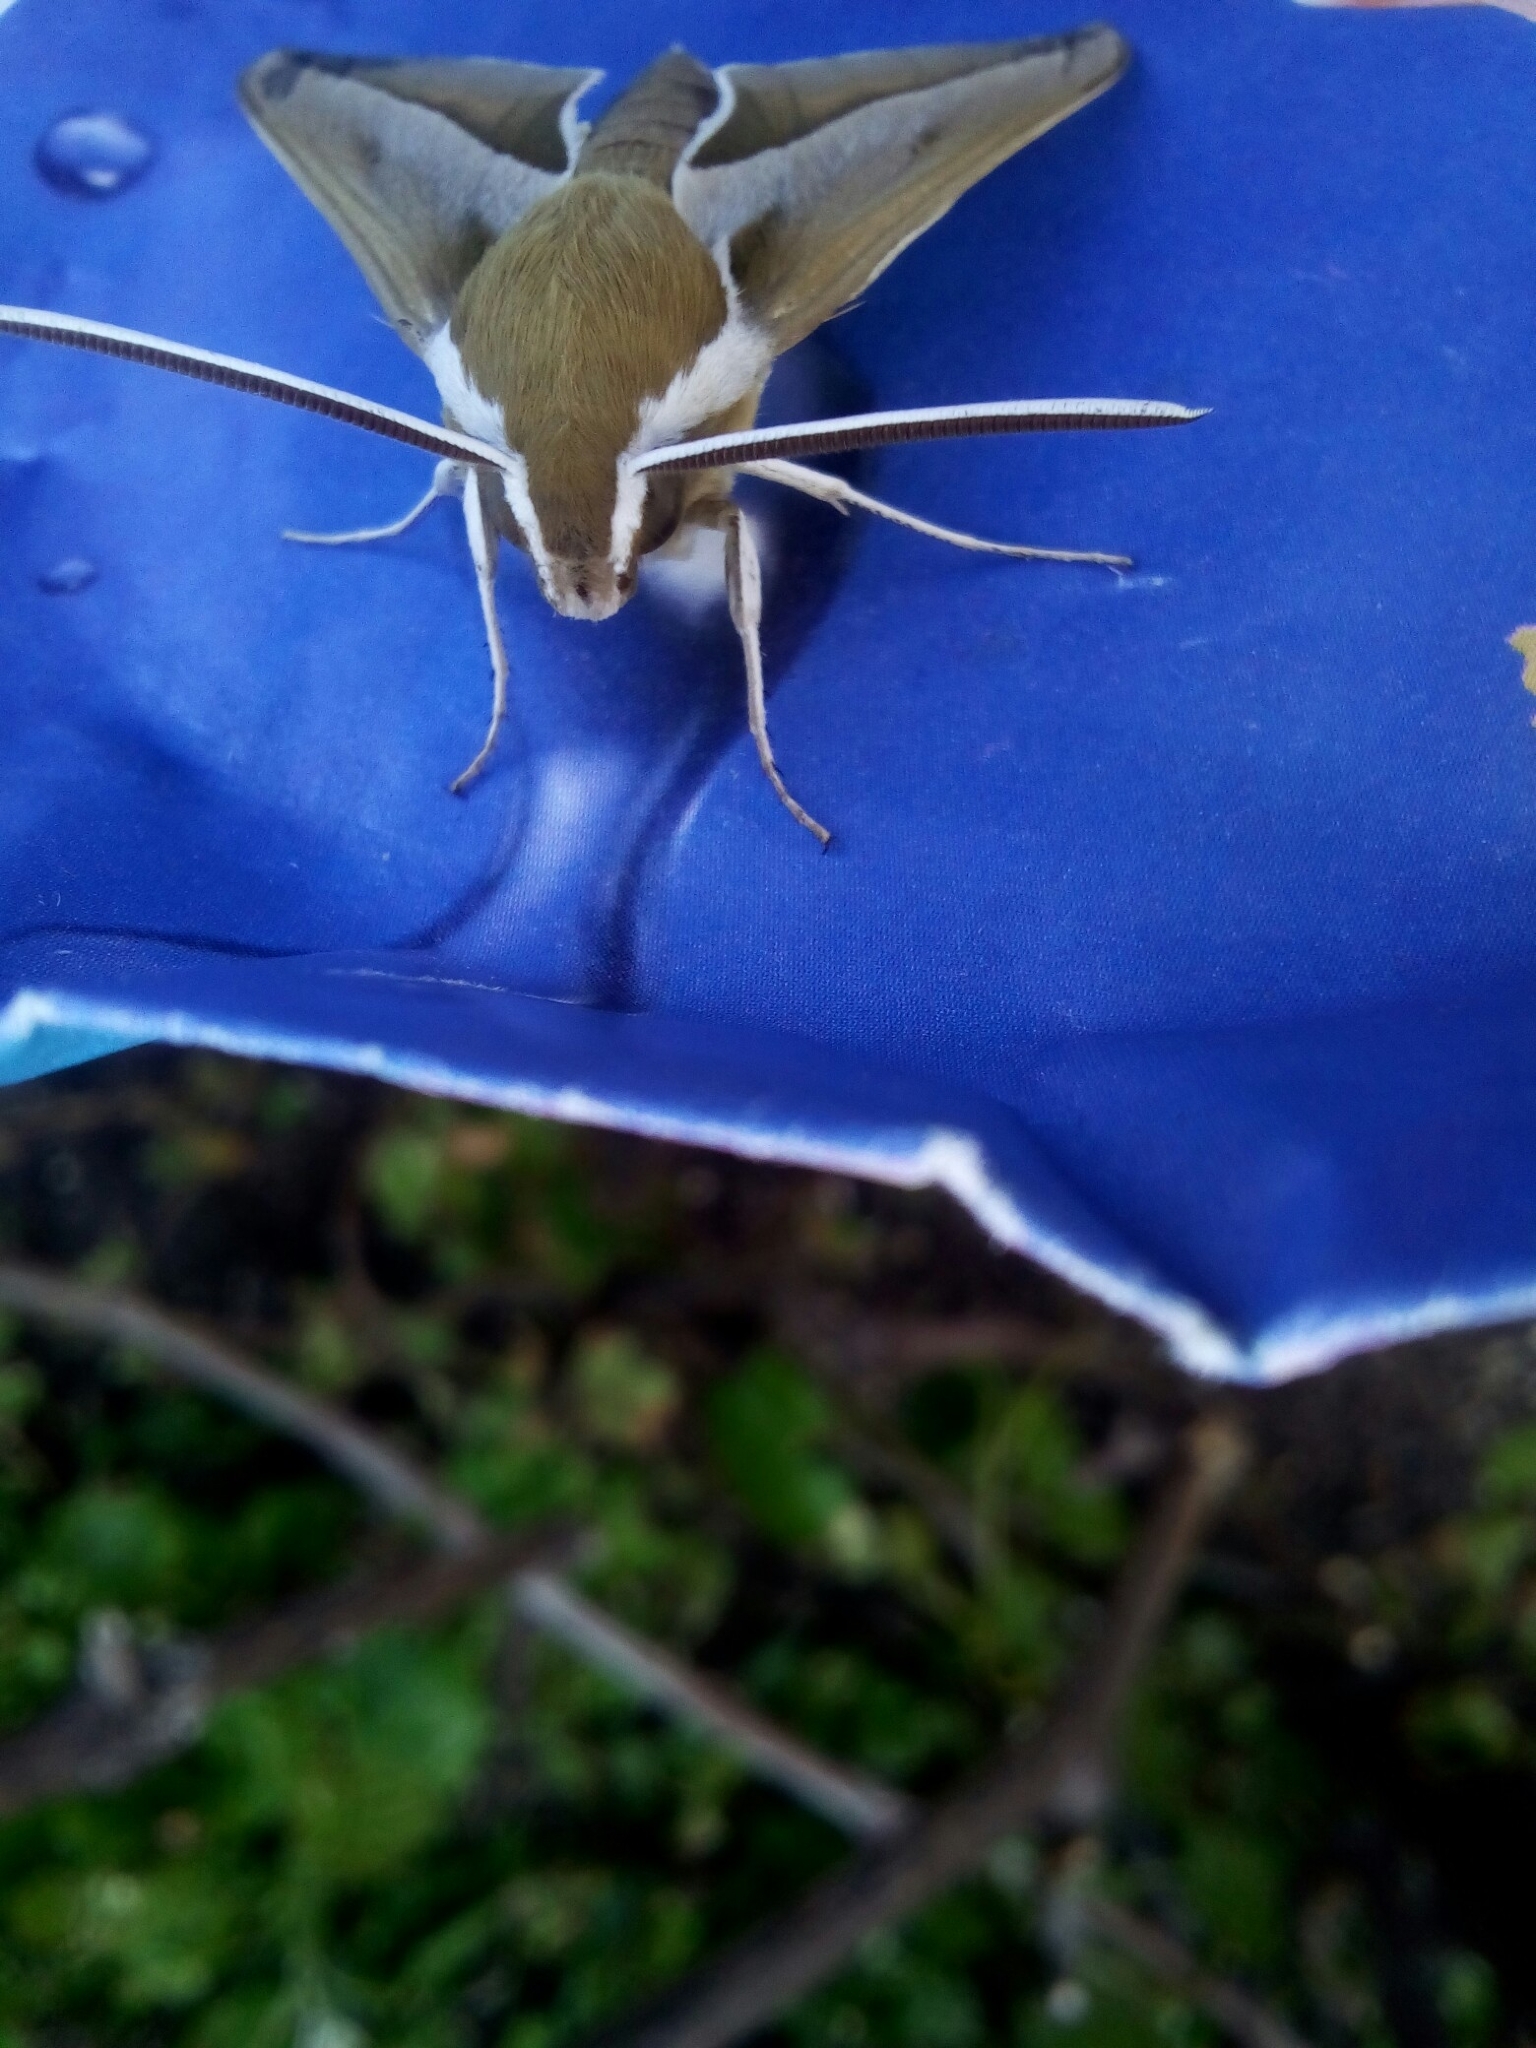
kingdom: Animalia
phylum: Arthropoda
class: Insecta
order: Lepidoptera
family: Sphingidae
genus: Hyles
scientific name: Hyles hippophaes
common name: Seathorn hawk-moth
